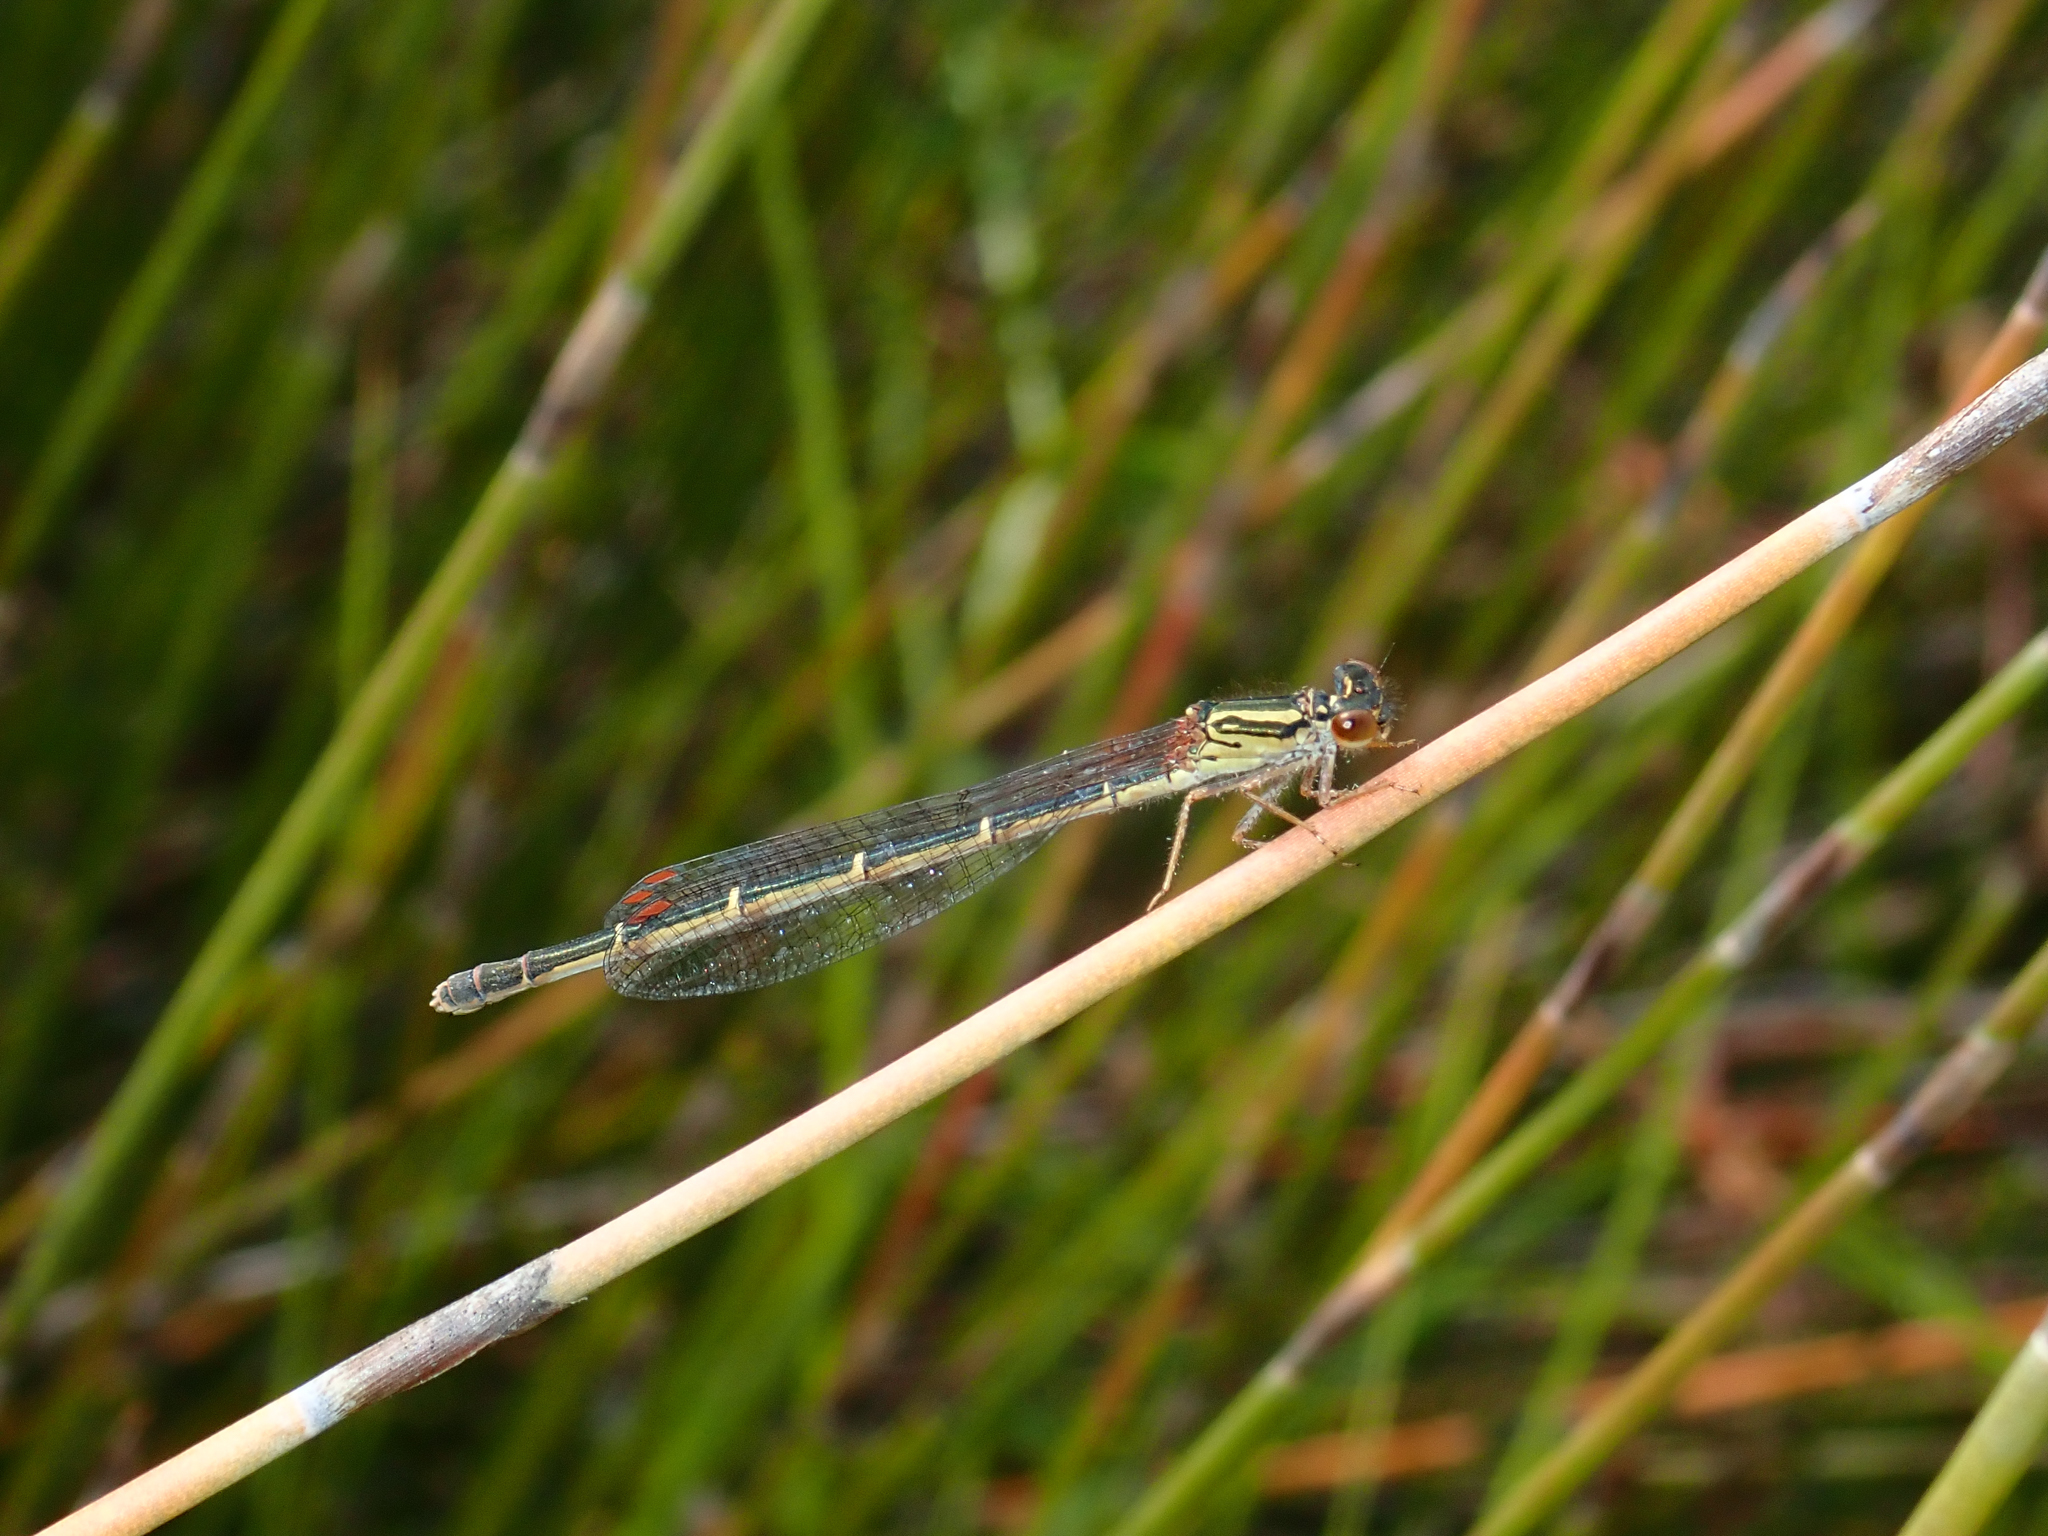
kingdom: Animalia
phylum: Arthropoda
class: Insecta
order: Odonata
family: Coenagrionidae
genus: Xanthocnemis
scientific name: Xanthocnemis zealandica
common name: Common redcoat damselfly
